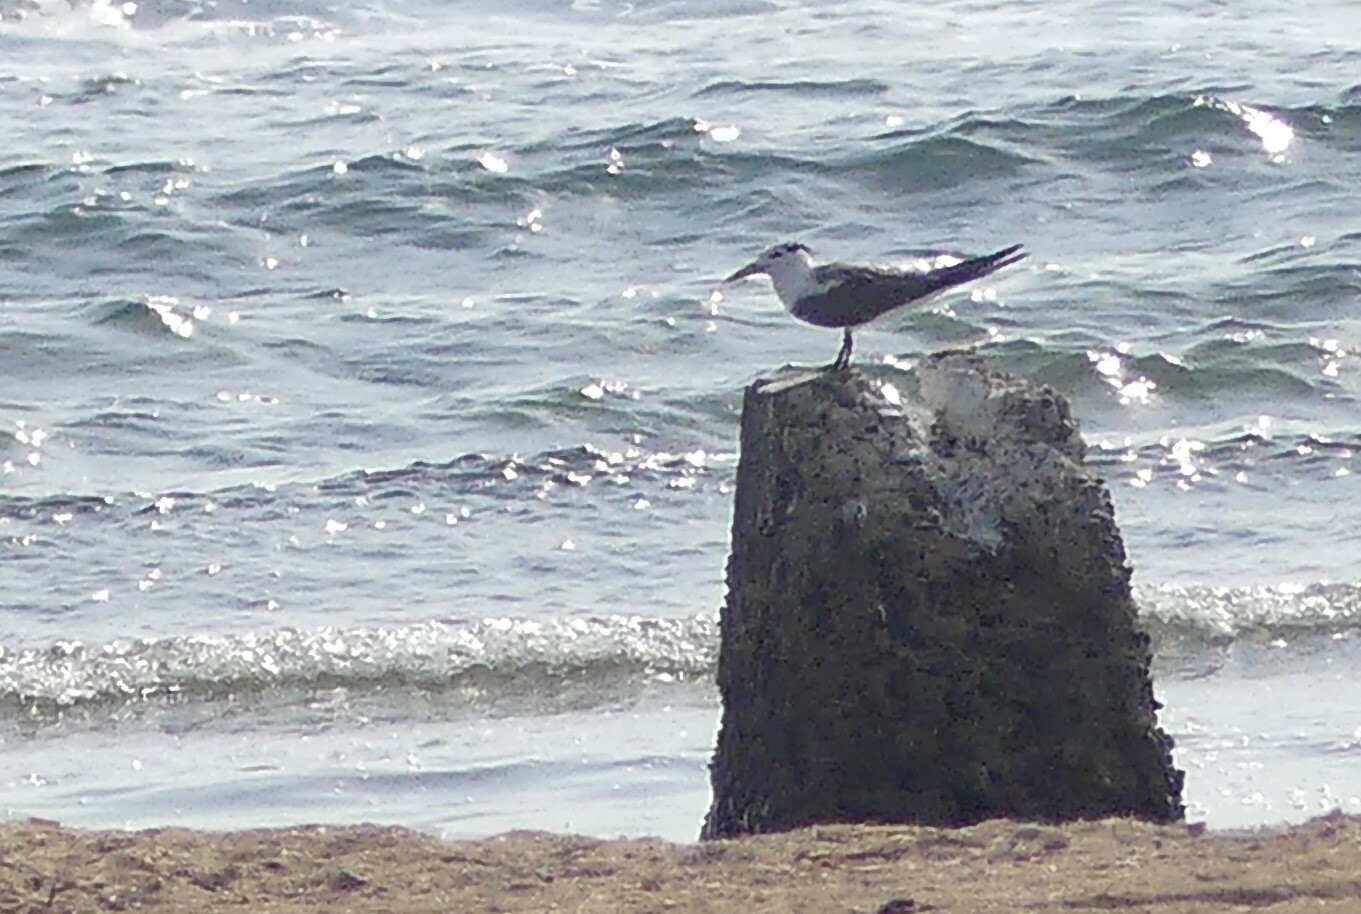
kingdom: Animalia
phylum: Chordata
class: Aves
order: Charadriiformes
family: Laridae
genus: Thalasseus
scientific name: Thalasseus bergii
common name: Greater crested tern
